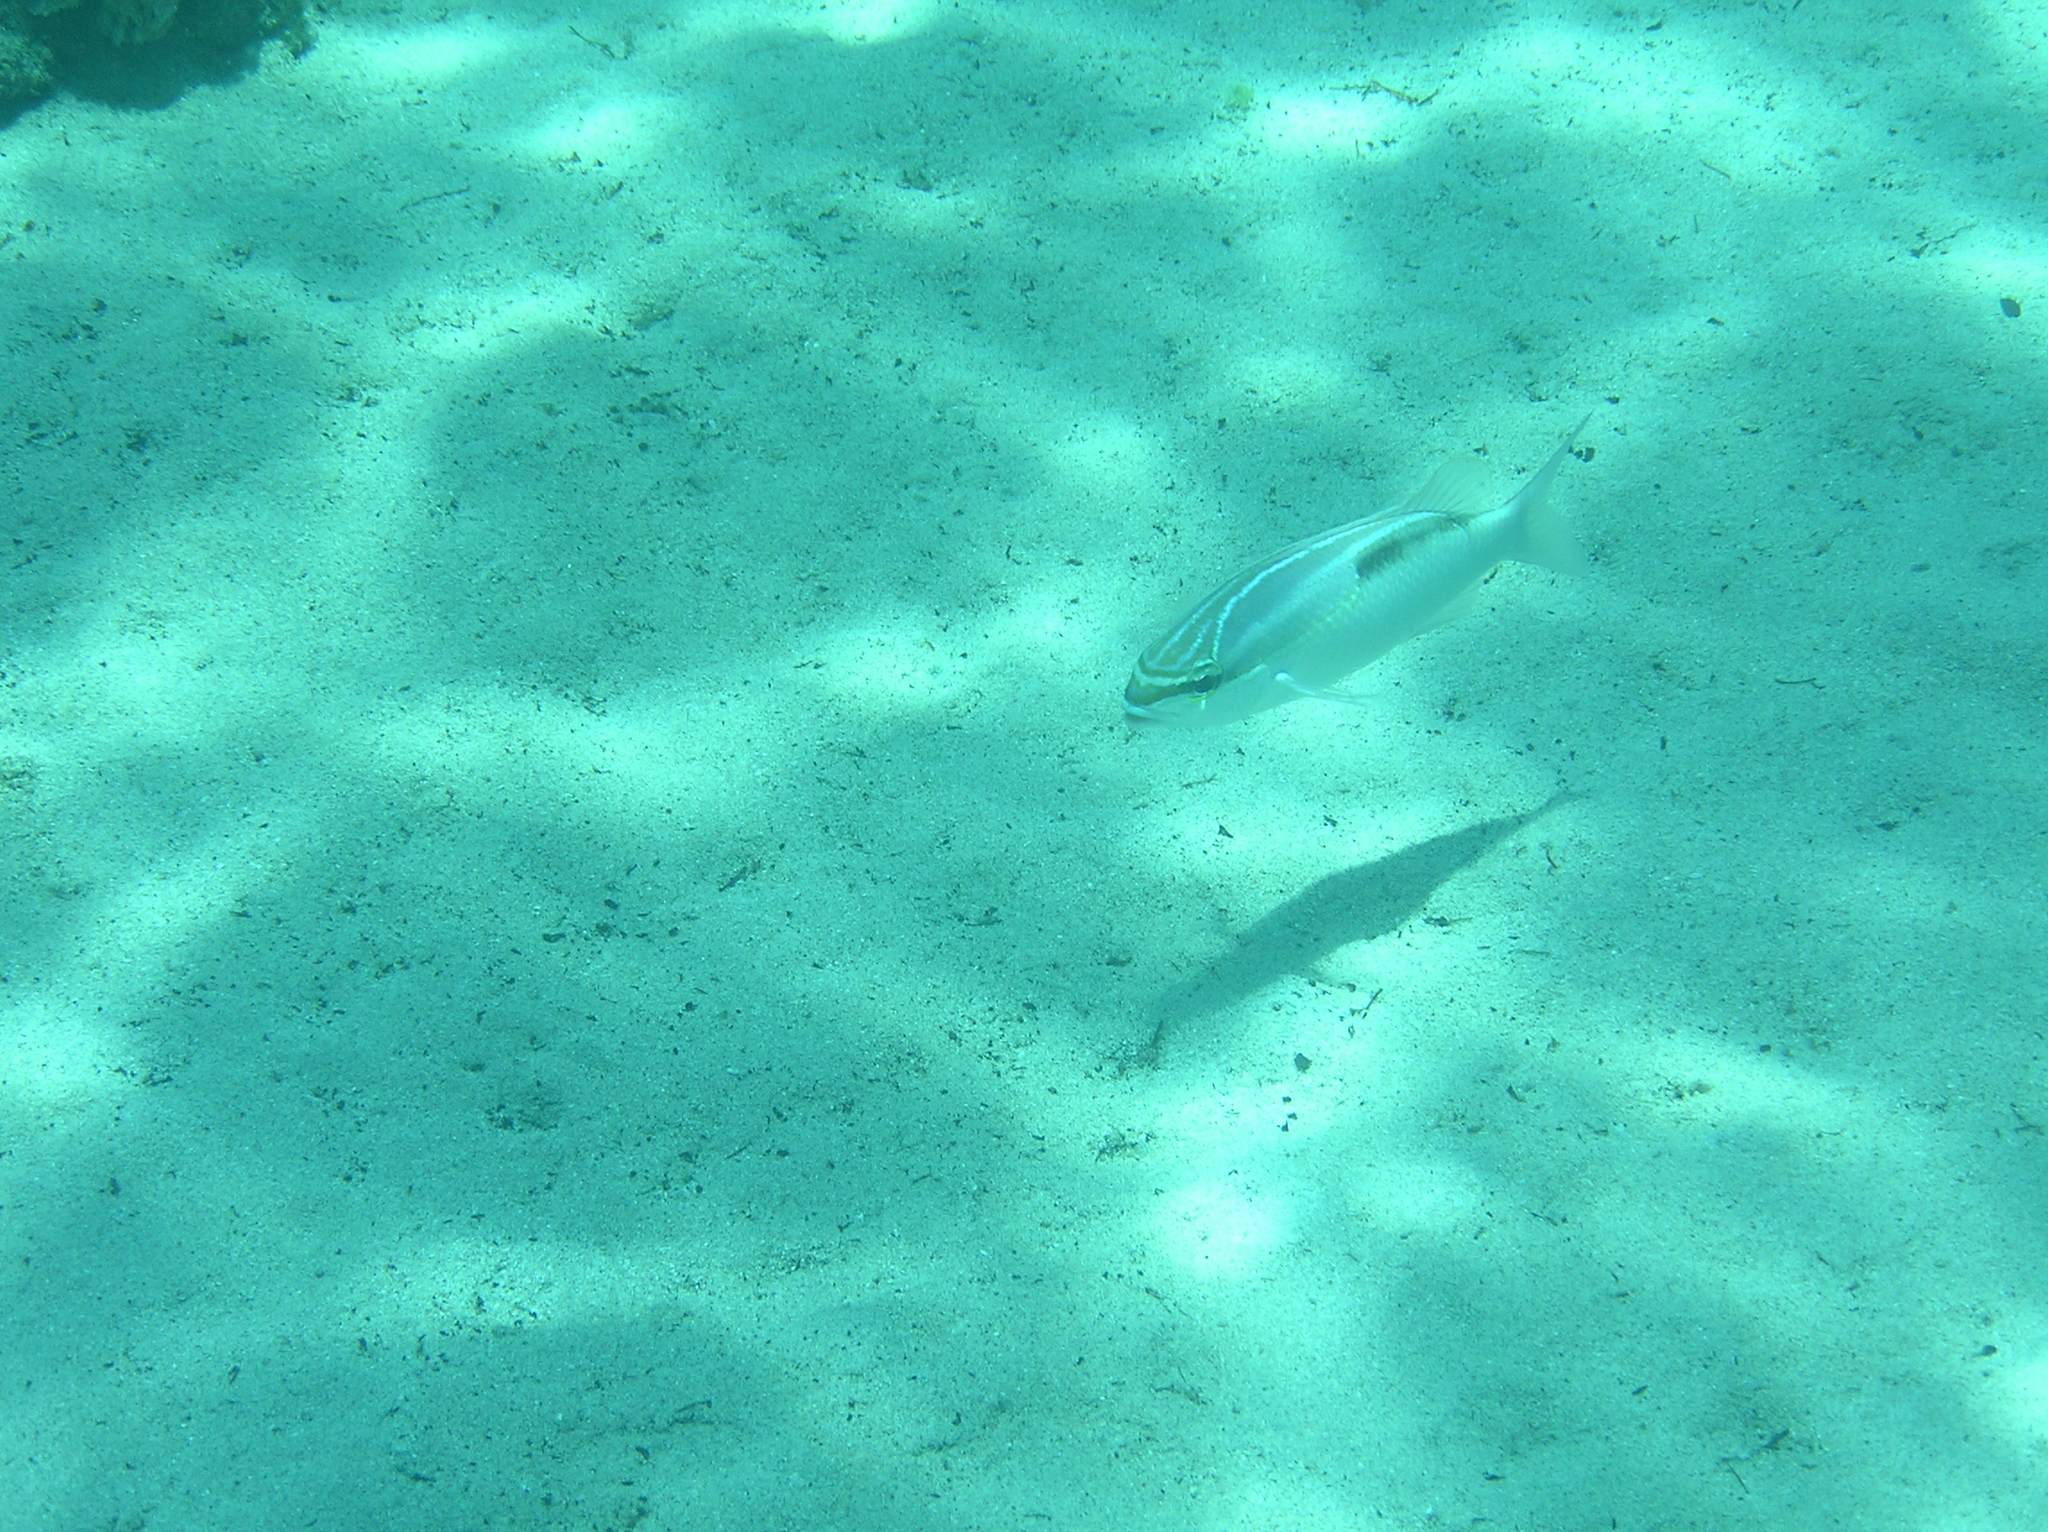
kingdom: Animalia
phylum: Chordata
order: Perciformes
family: Nemipteridae
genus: Scolopsis
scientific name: Scolopsis trilineata
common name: Three-lined monocle bream
